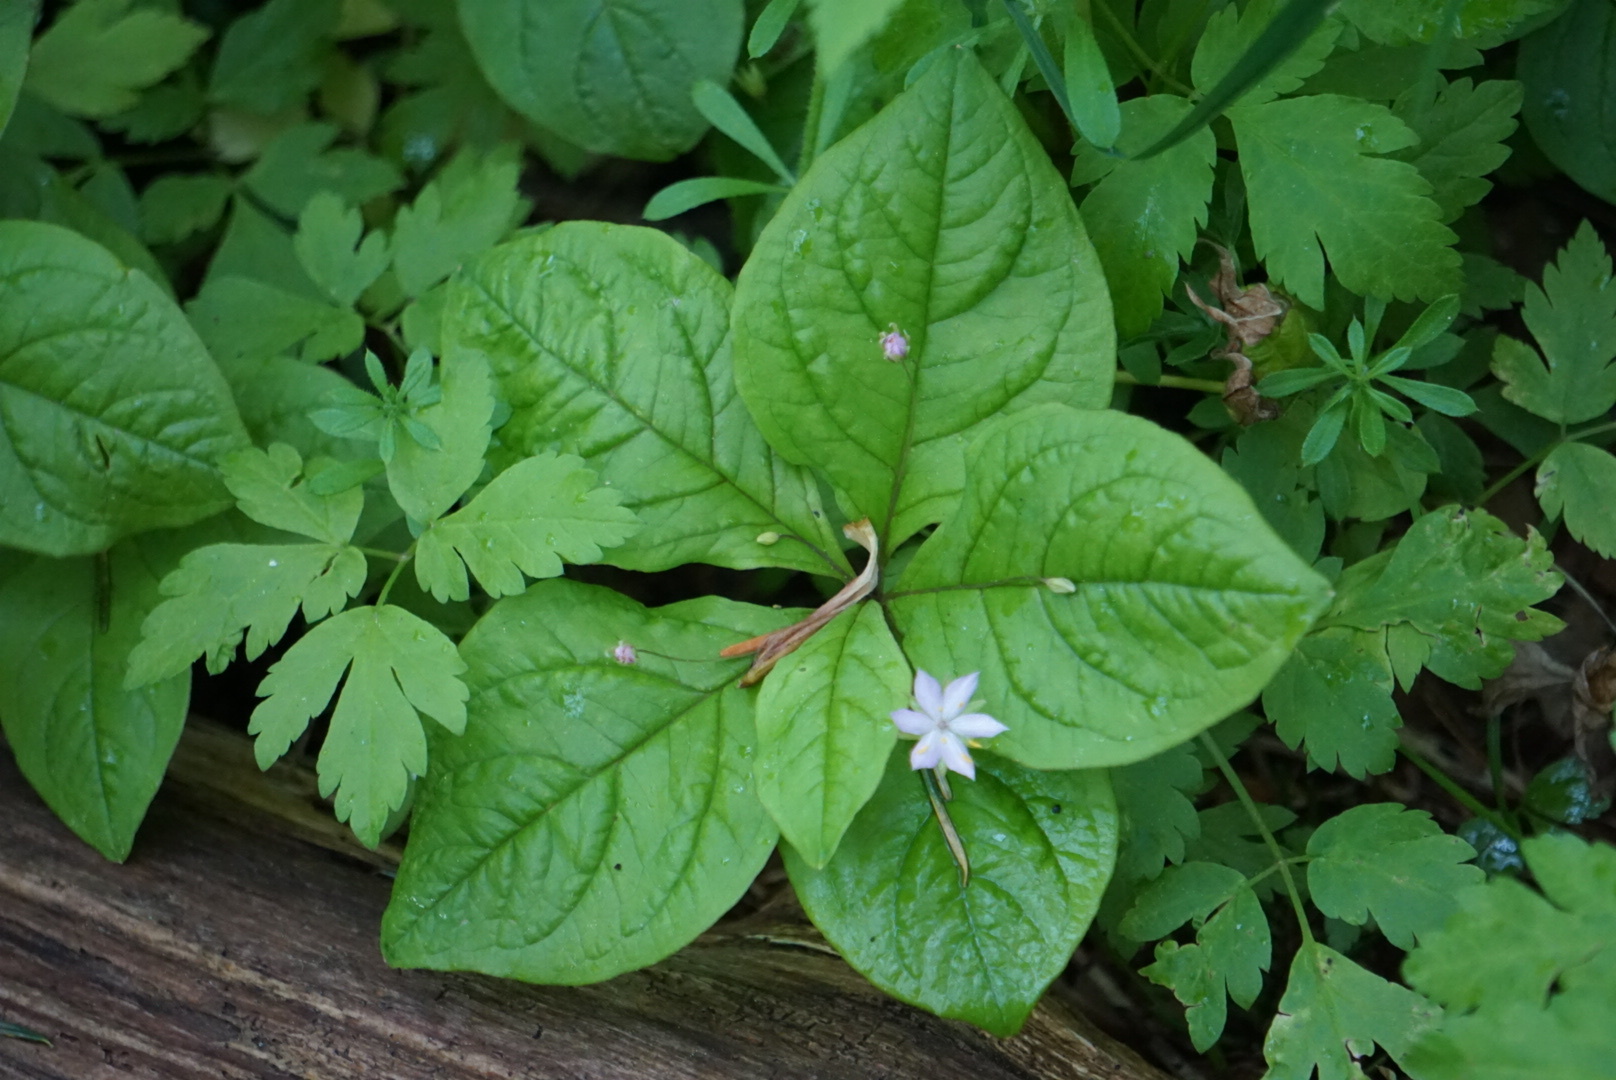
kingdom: Plantae
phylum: Tracheophyta
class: Magnoliopsida
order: Ericales
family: Primulaceae
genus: Lysimachia
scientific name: Lysimachia latifolia
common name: Pacific starflower
